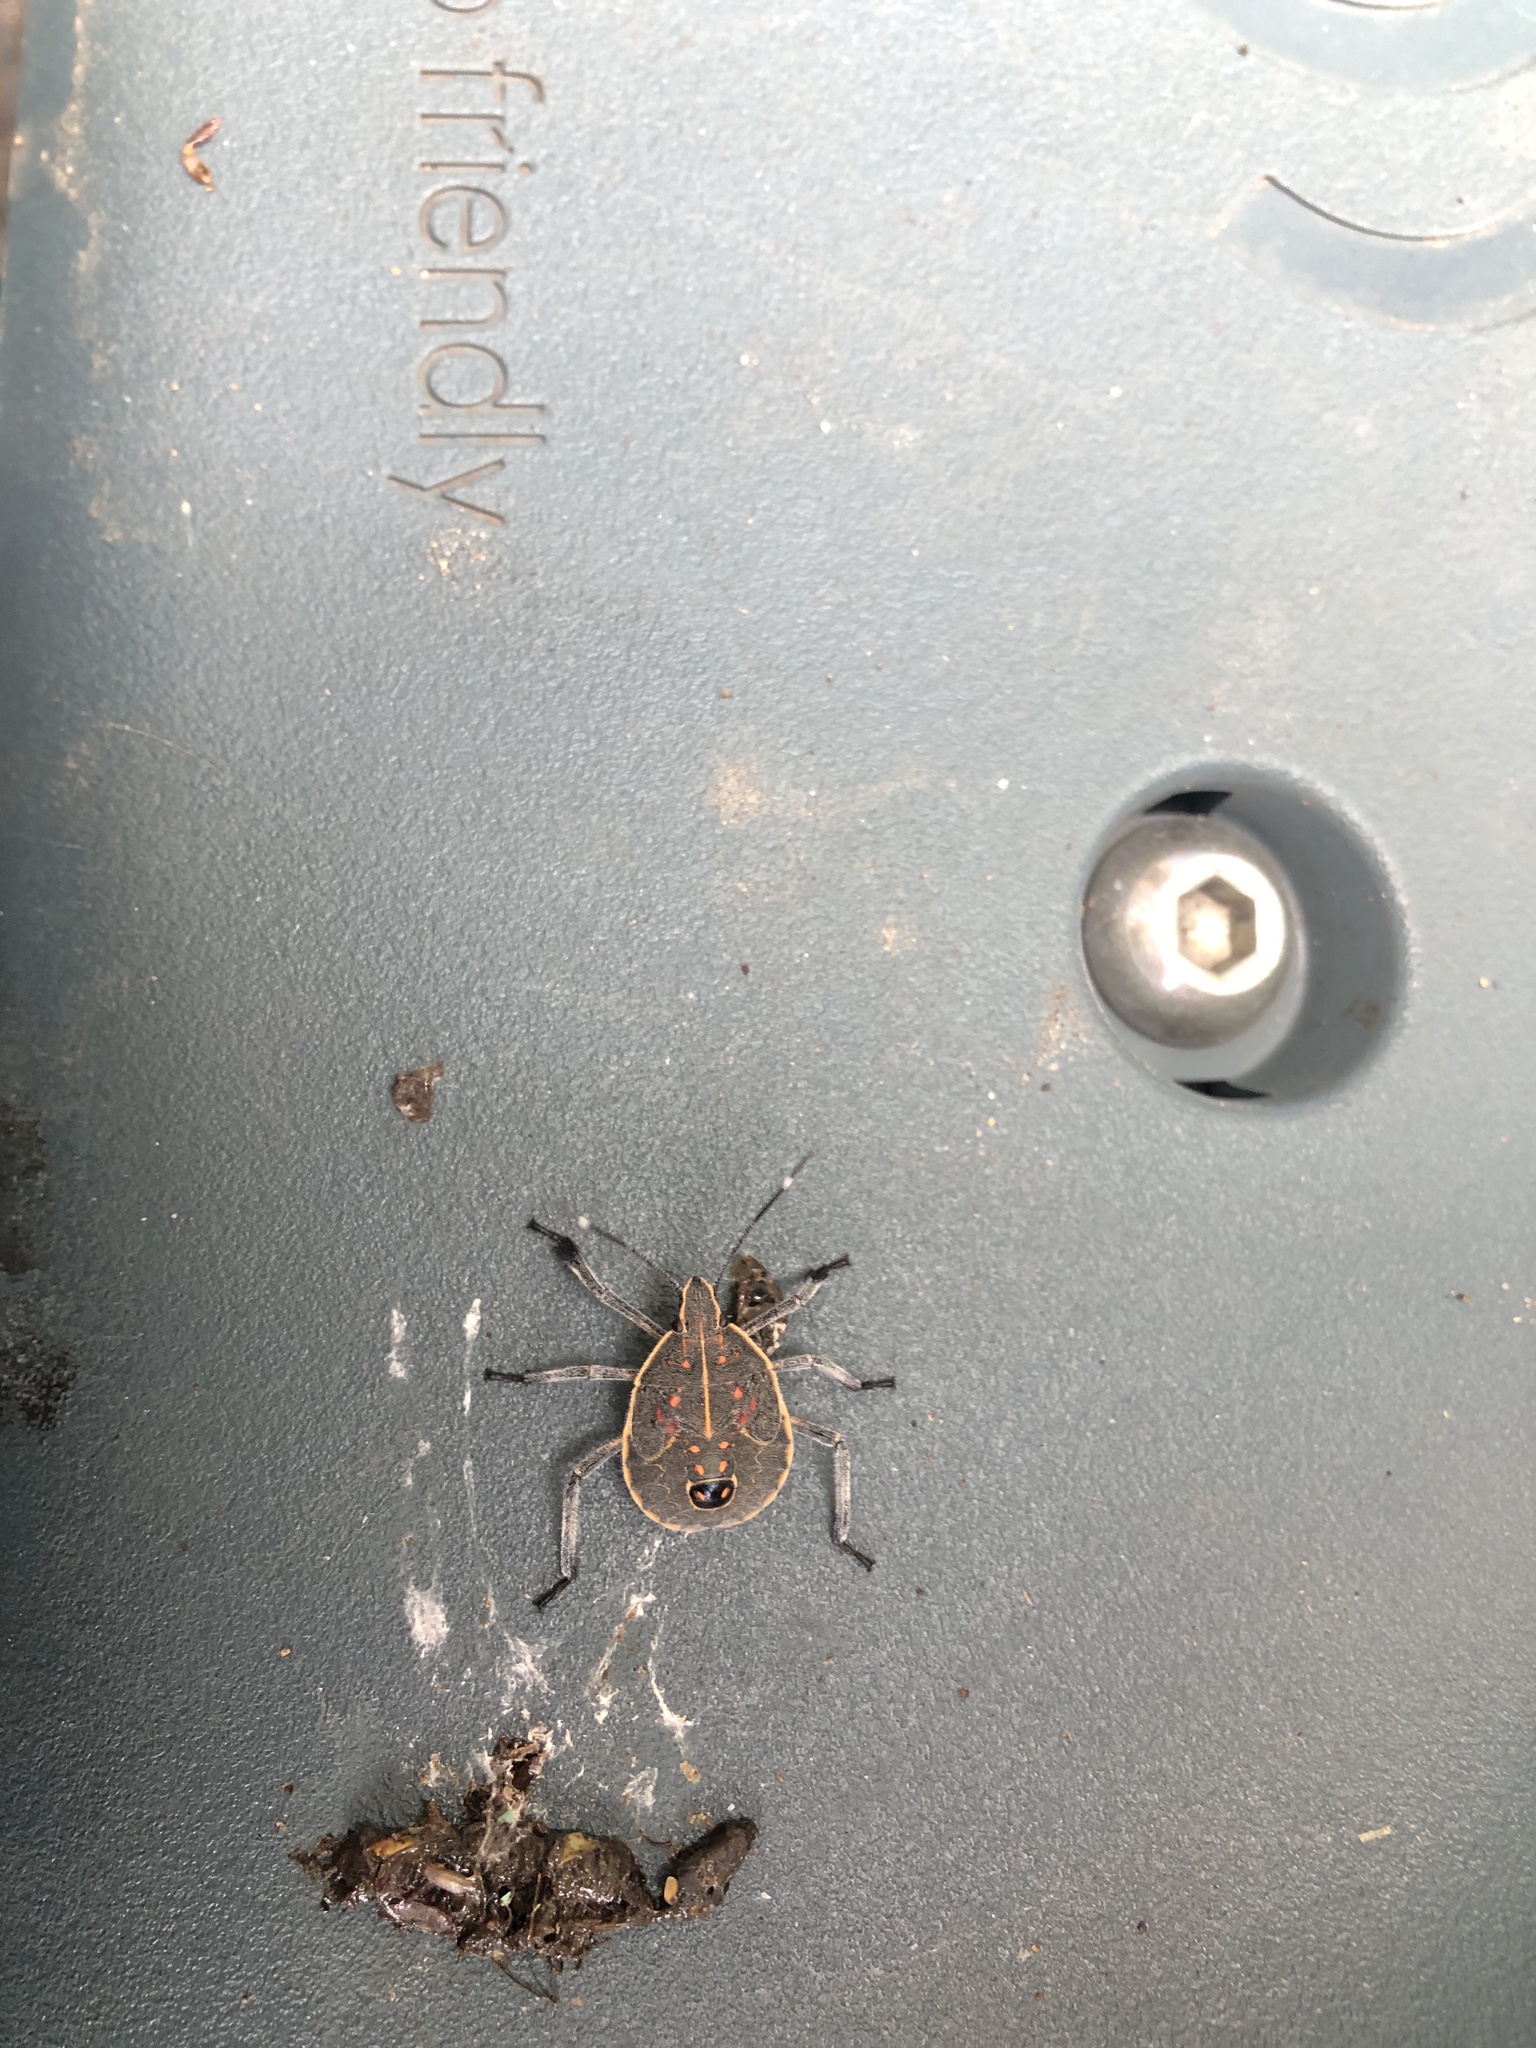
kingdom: Animalia
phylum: Arthropoda
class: Insecta
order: Hemiptera
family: Pentatomidae
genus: Erthesina
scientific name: Erthesina fullo
